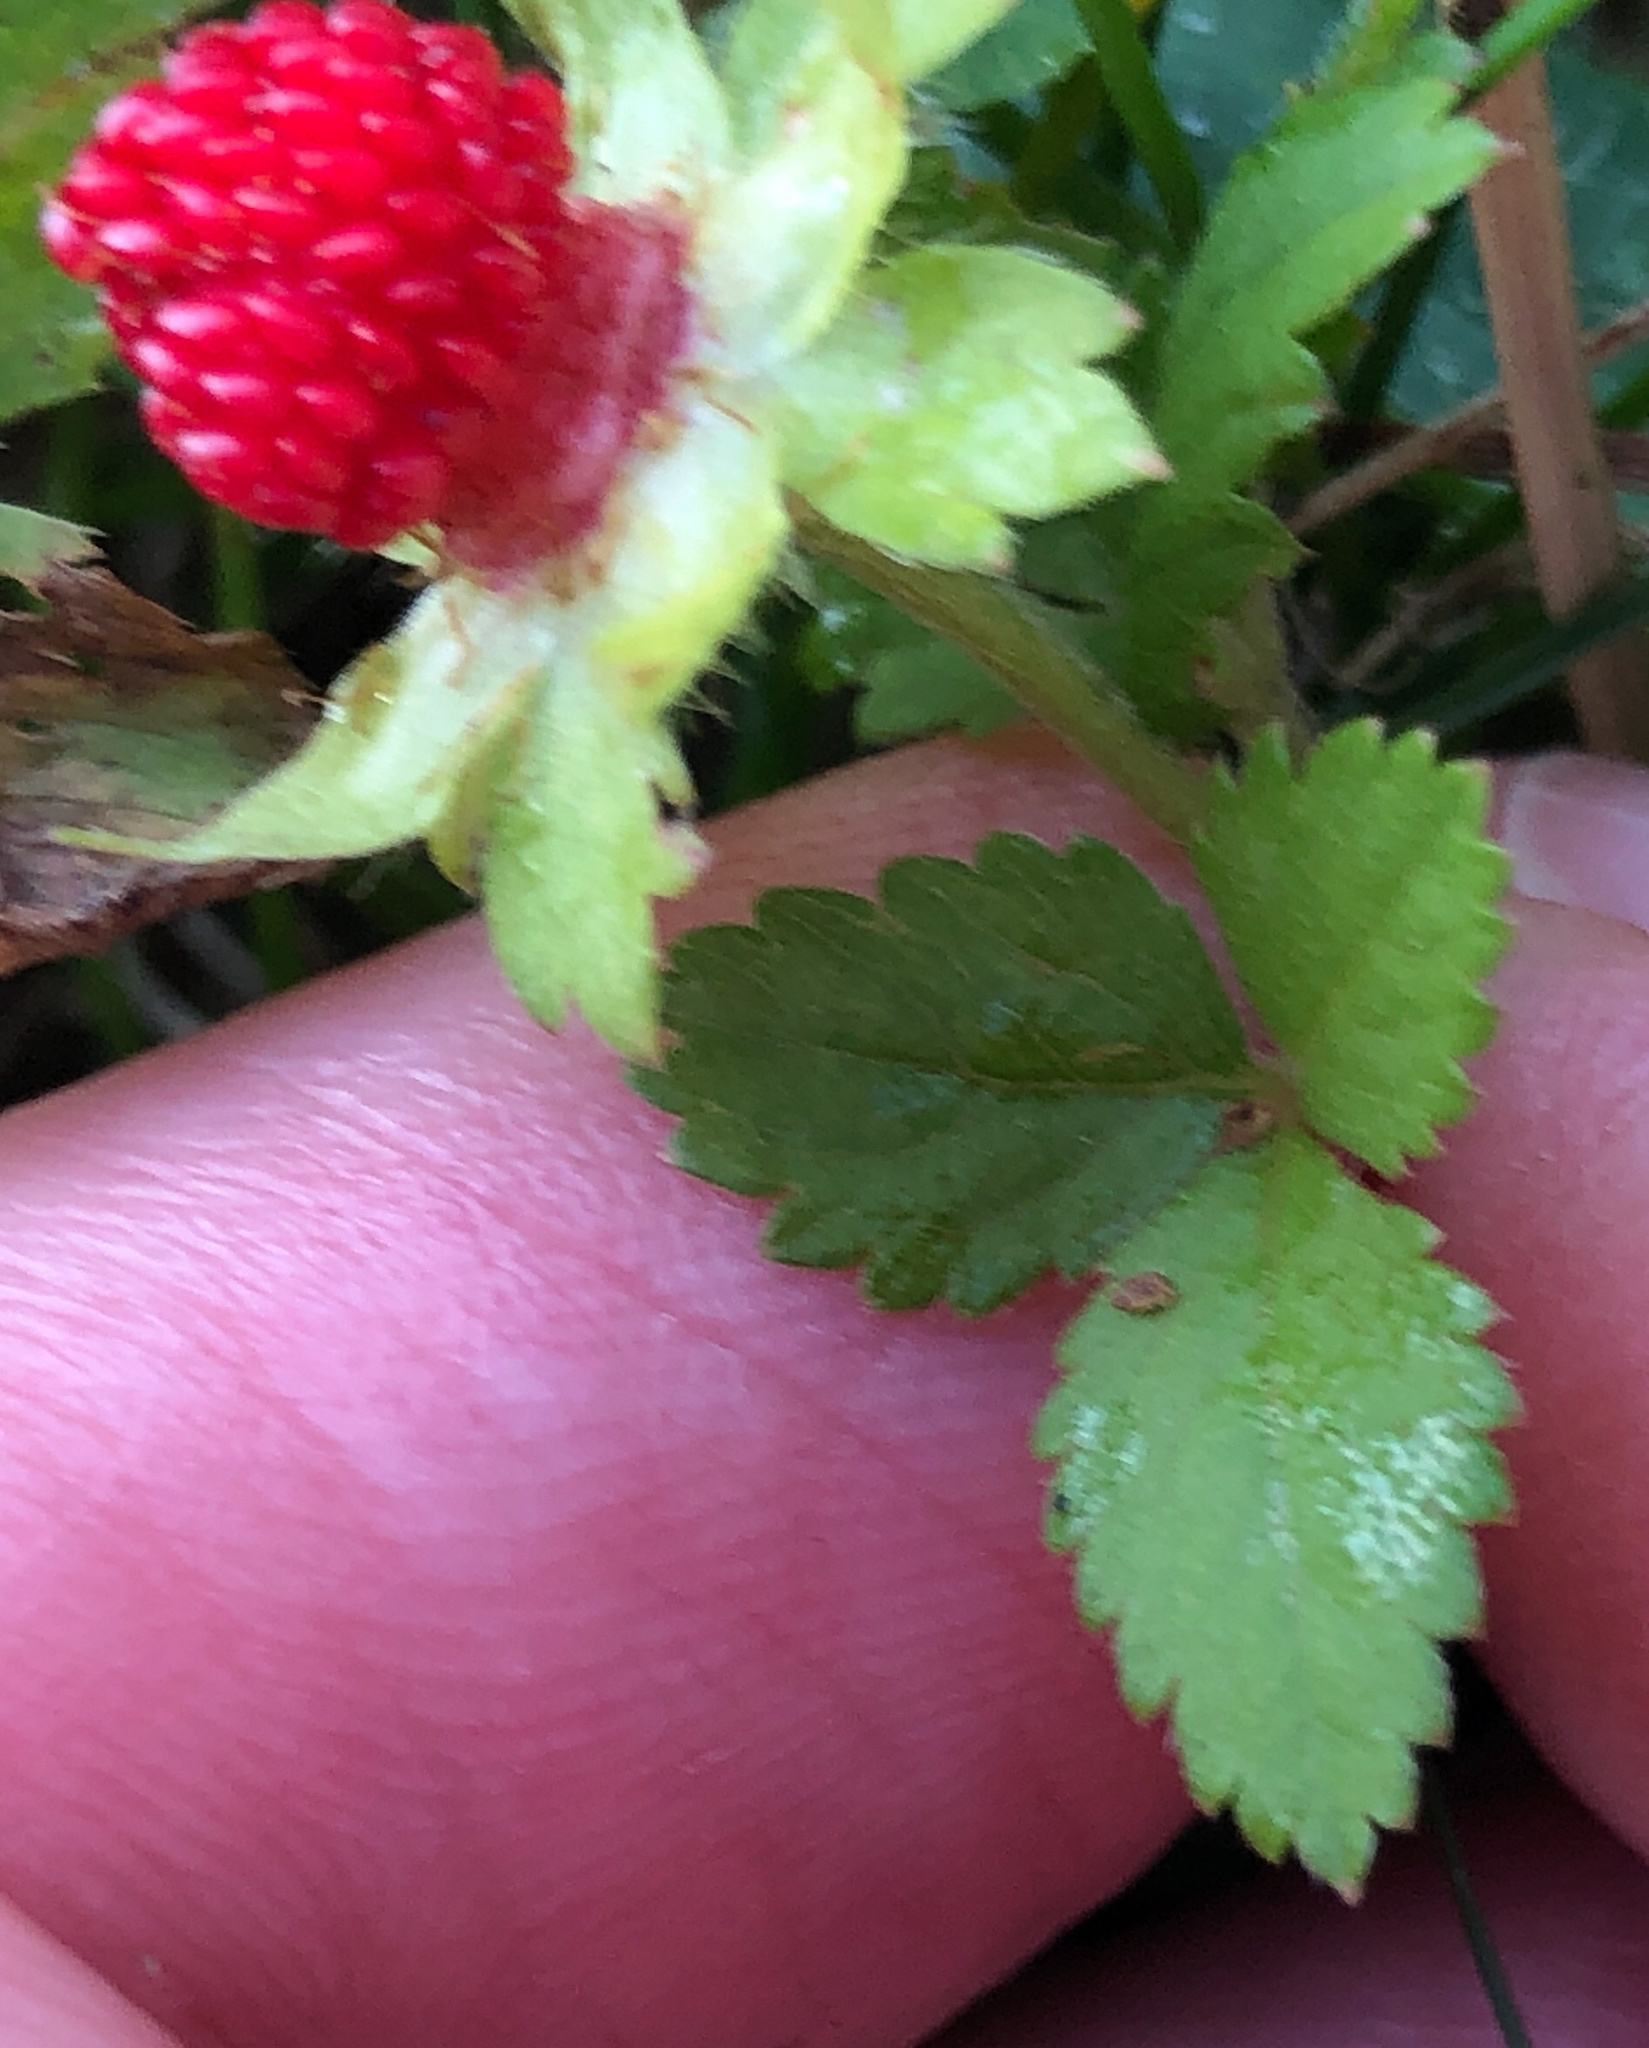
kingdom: Plantae
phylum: Tracheophyta
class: Magnoliopsida
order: Rosales
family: Rosaceae
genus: Potentilla
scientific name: Potentilla indica
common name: Yellow-flowered strawberry
